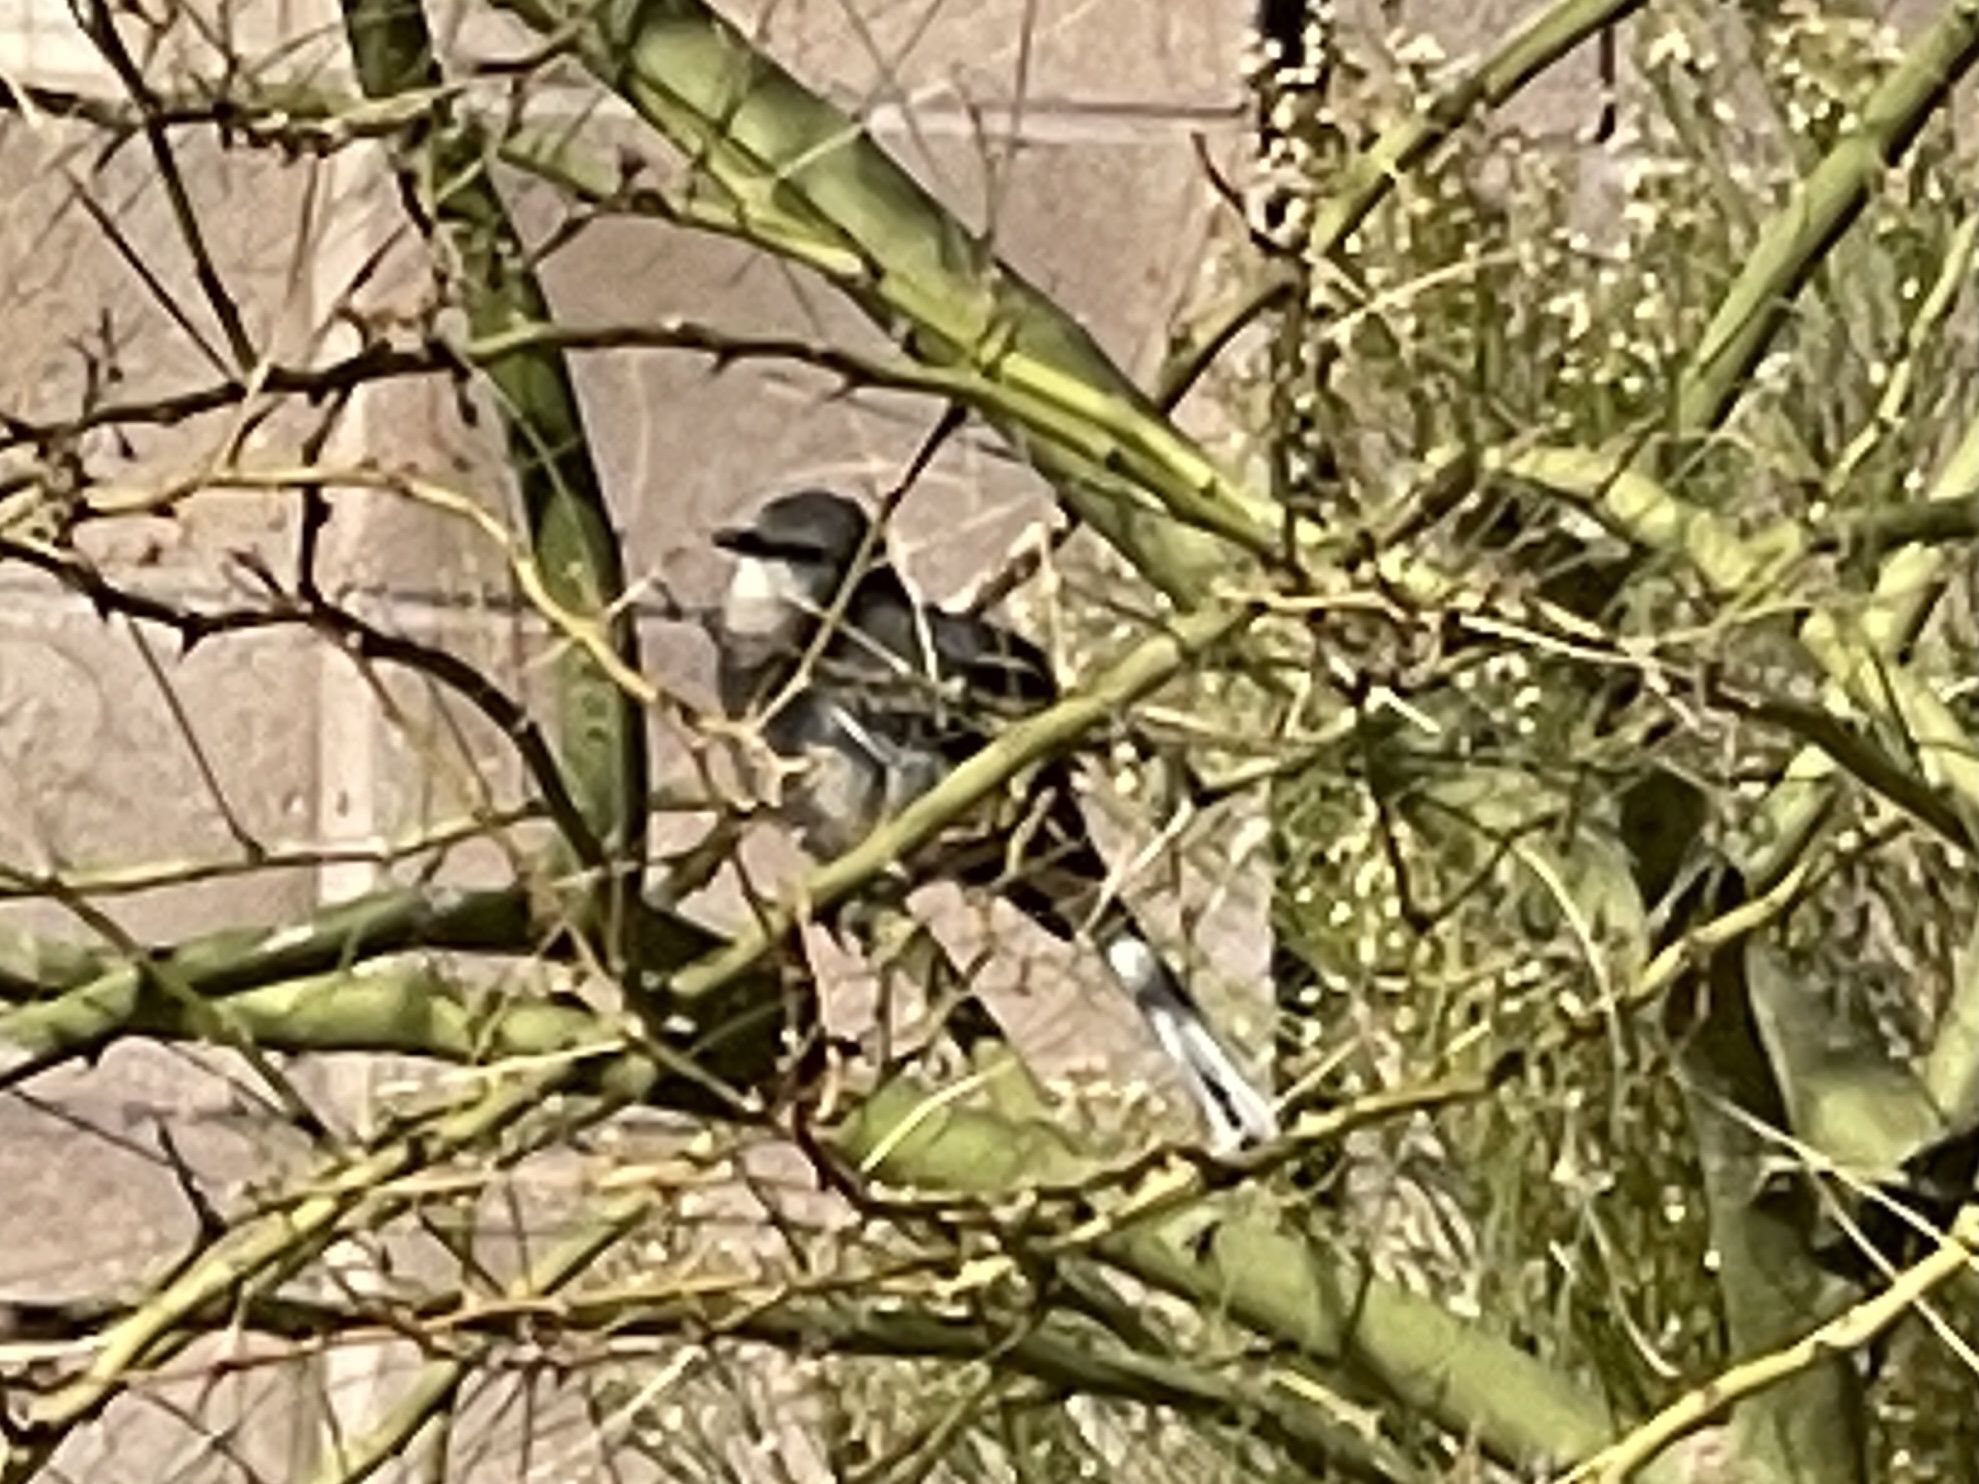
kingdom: Animalia
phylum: Chordata
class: Aves
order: Passeriformes
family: Mimidae
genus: Mimus
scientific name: Mimus polyglottos
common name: Northern mockingbird
